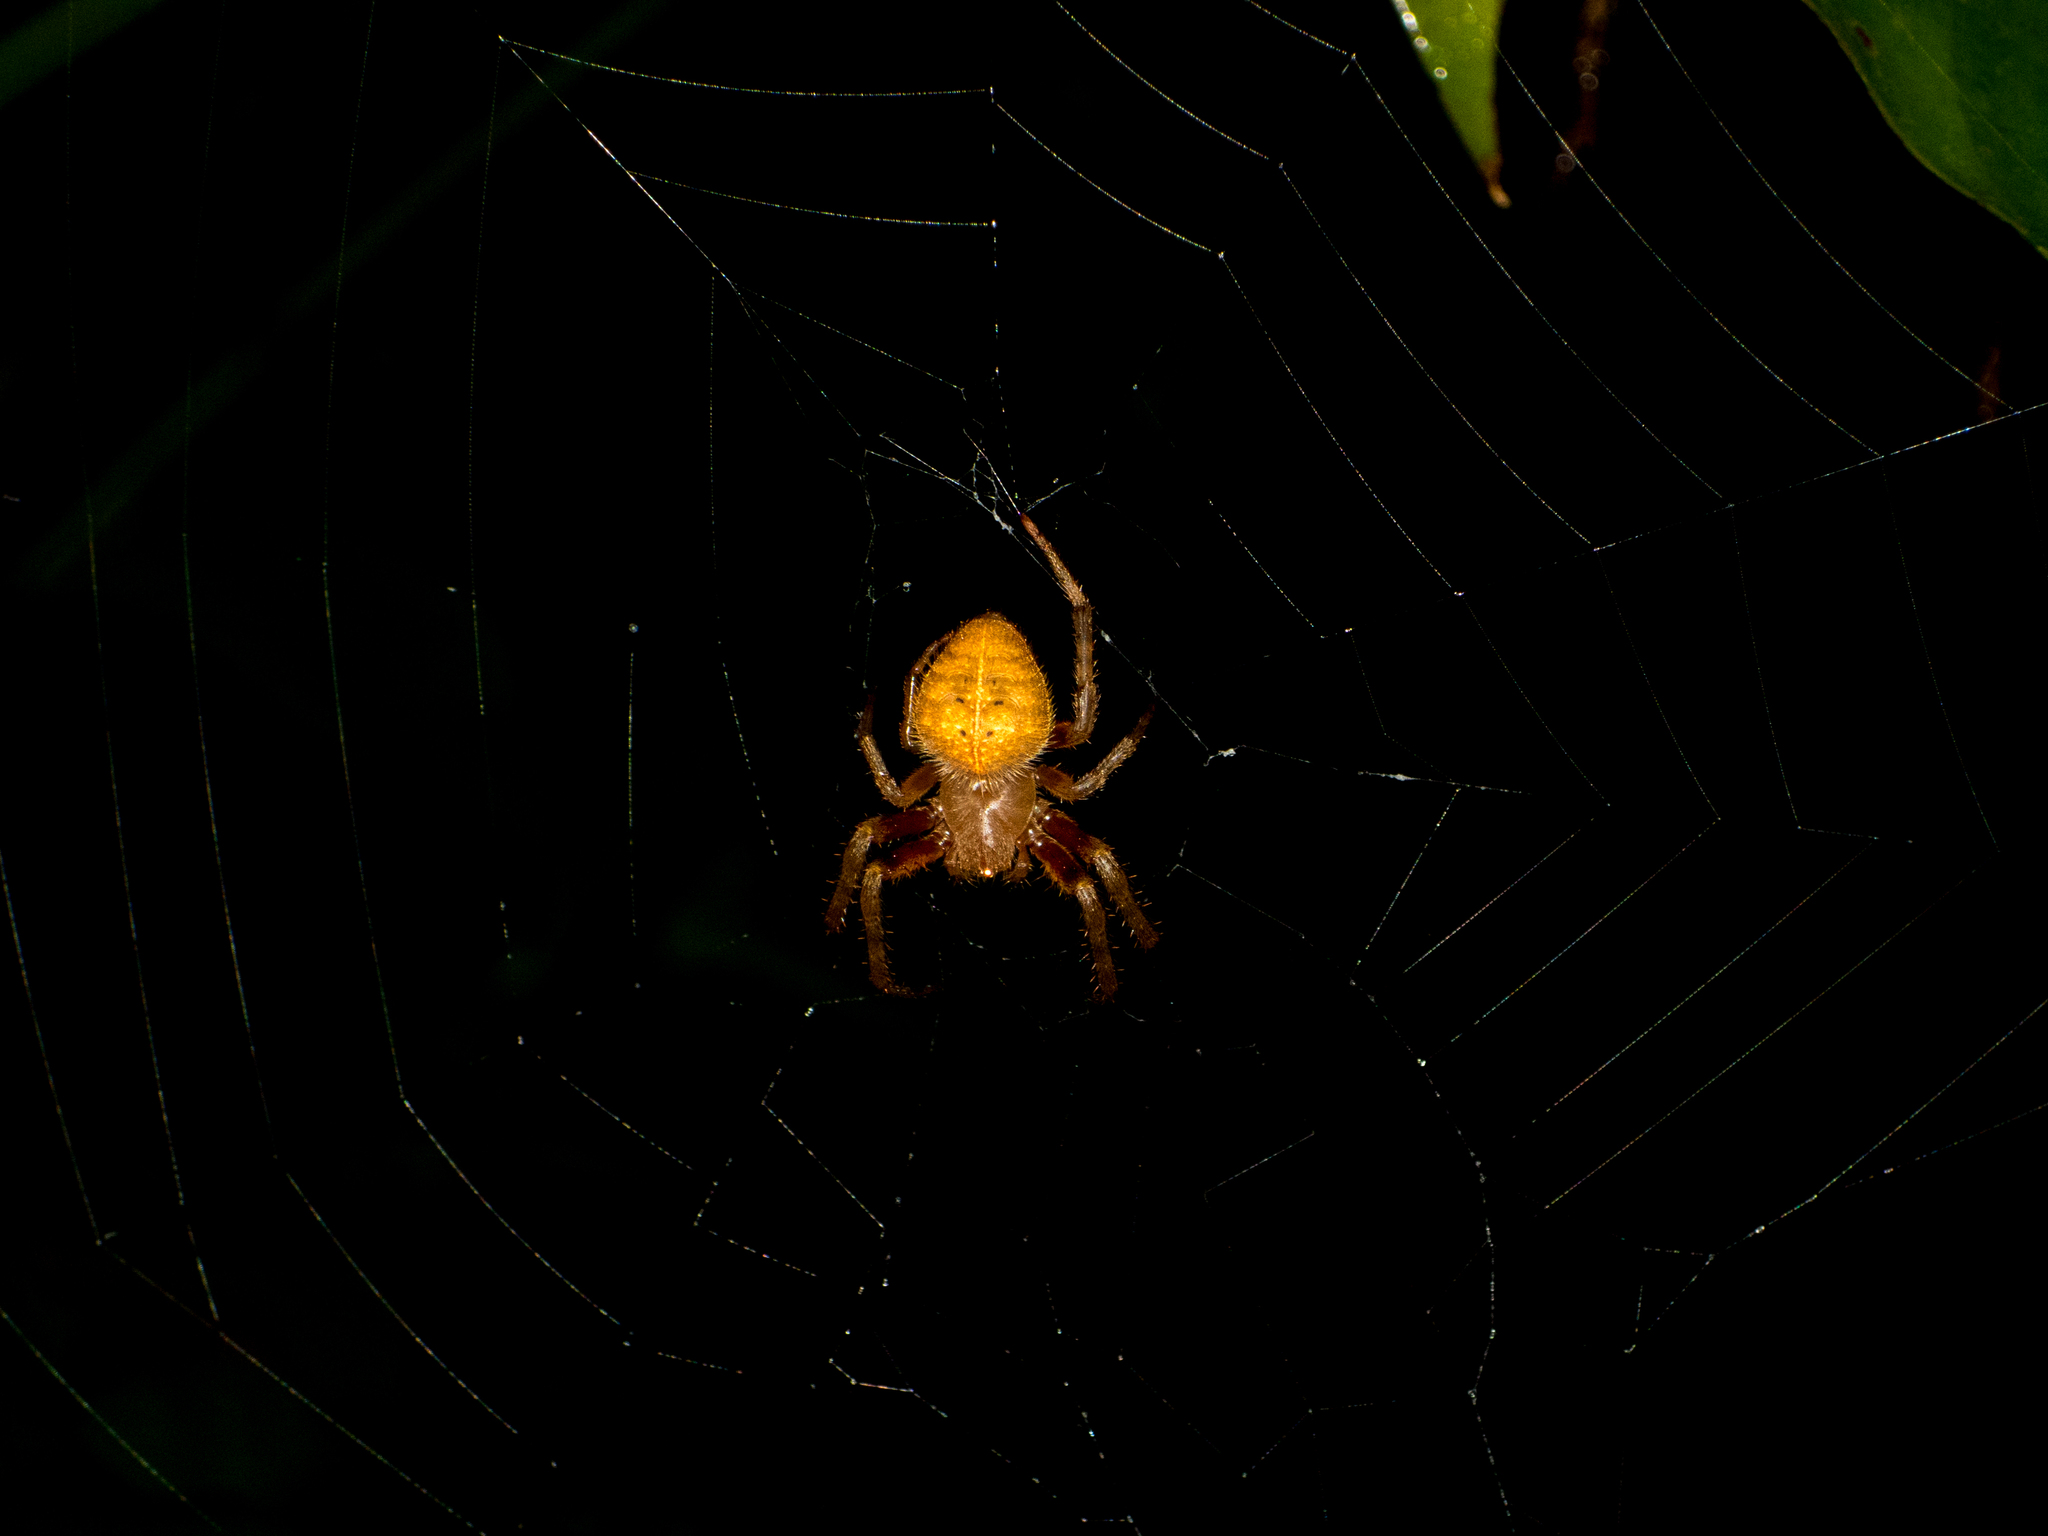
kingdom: Animalia
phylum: Arthropoda
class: Arachnida
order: Araneae
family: Araneidae
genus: Eriophora
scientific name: Eriophora ravilla
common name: Orb weavers
